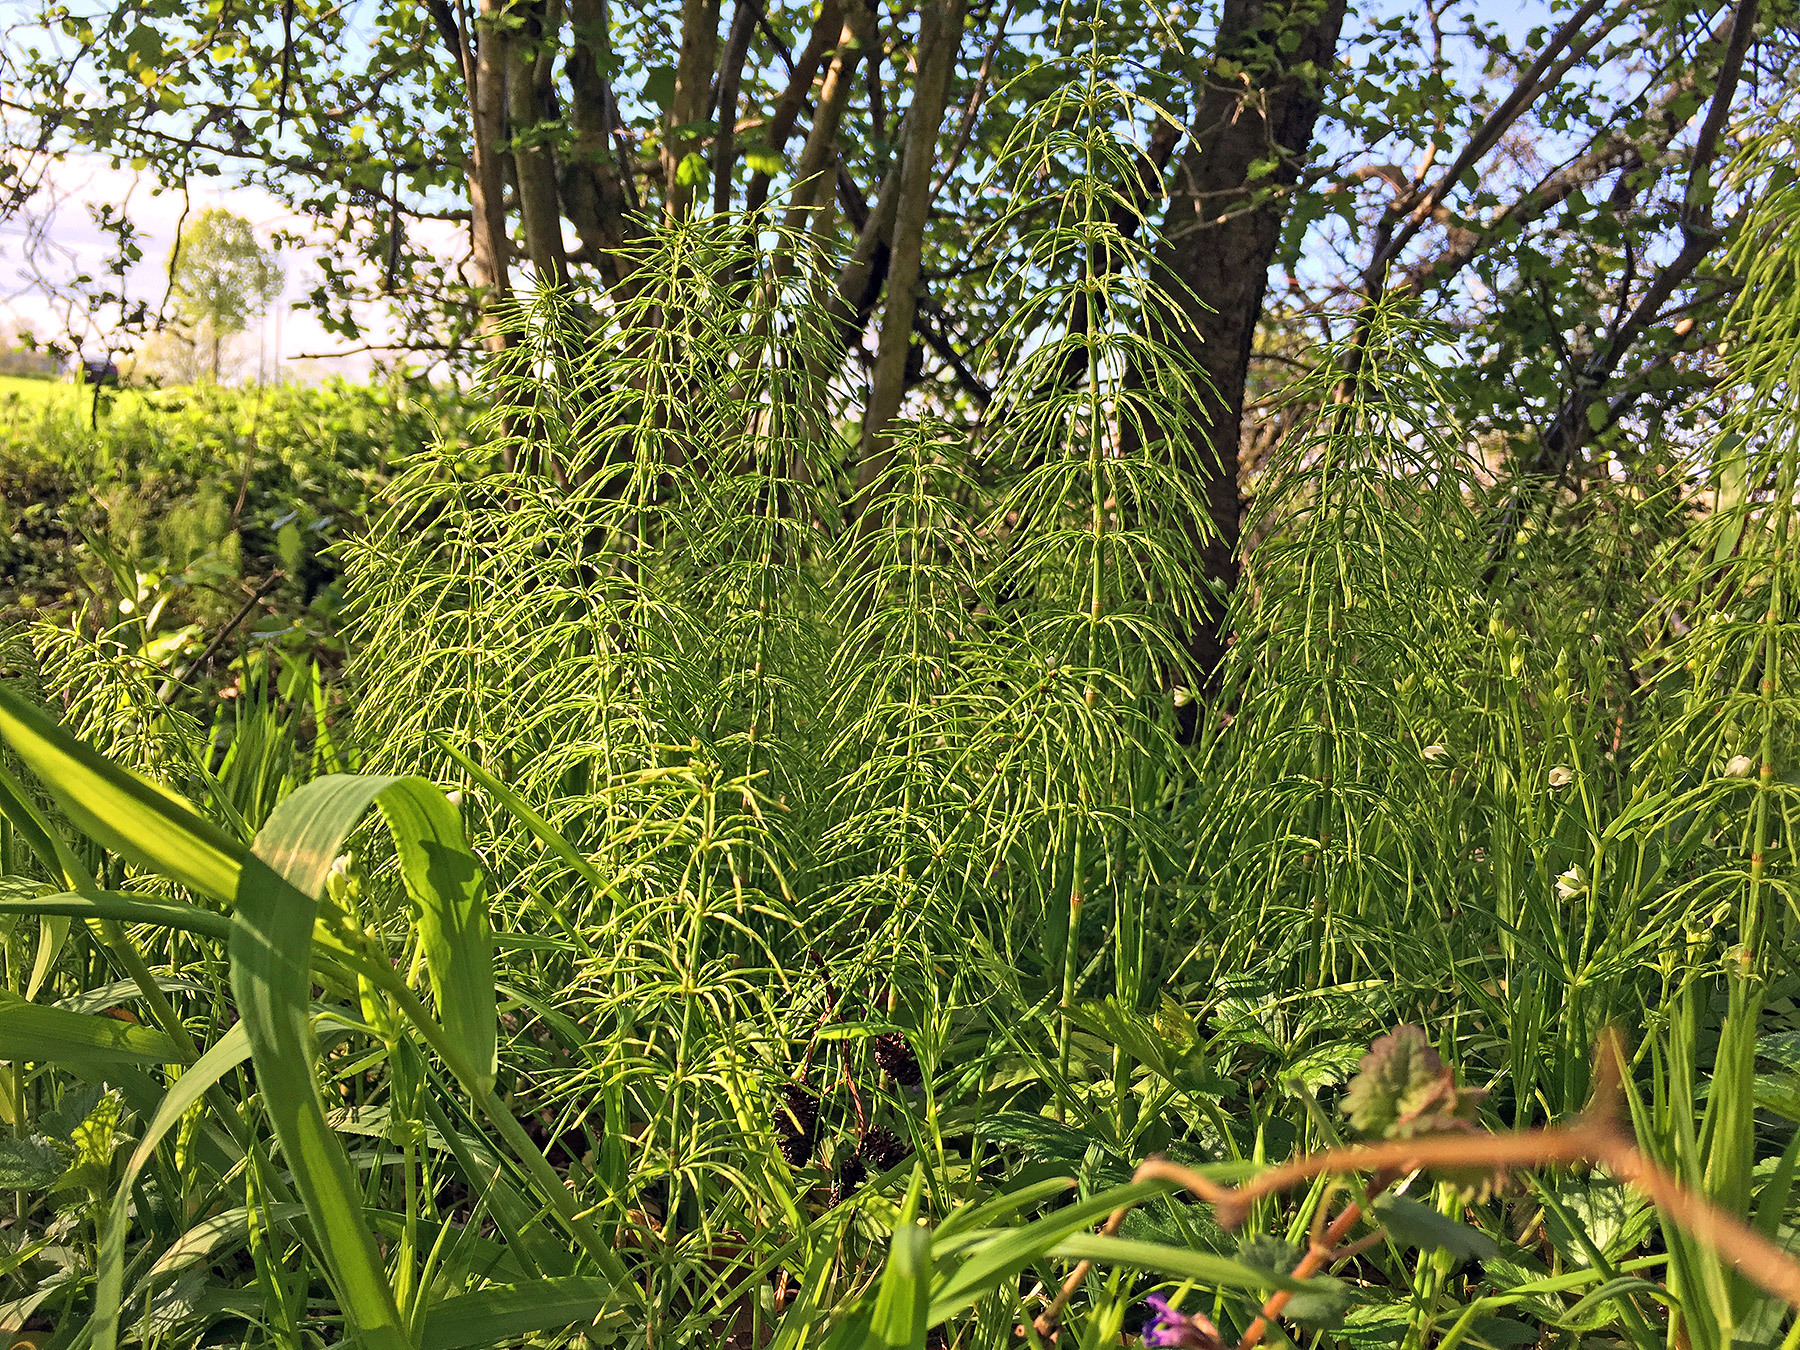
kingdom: Plantae
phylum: Tracheophyta
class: Polypodiopsida
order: Equisetales
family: Equisetaceae
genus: Equisetum
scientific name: Equisetum arvense
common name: Field horsetail
